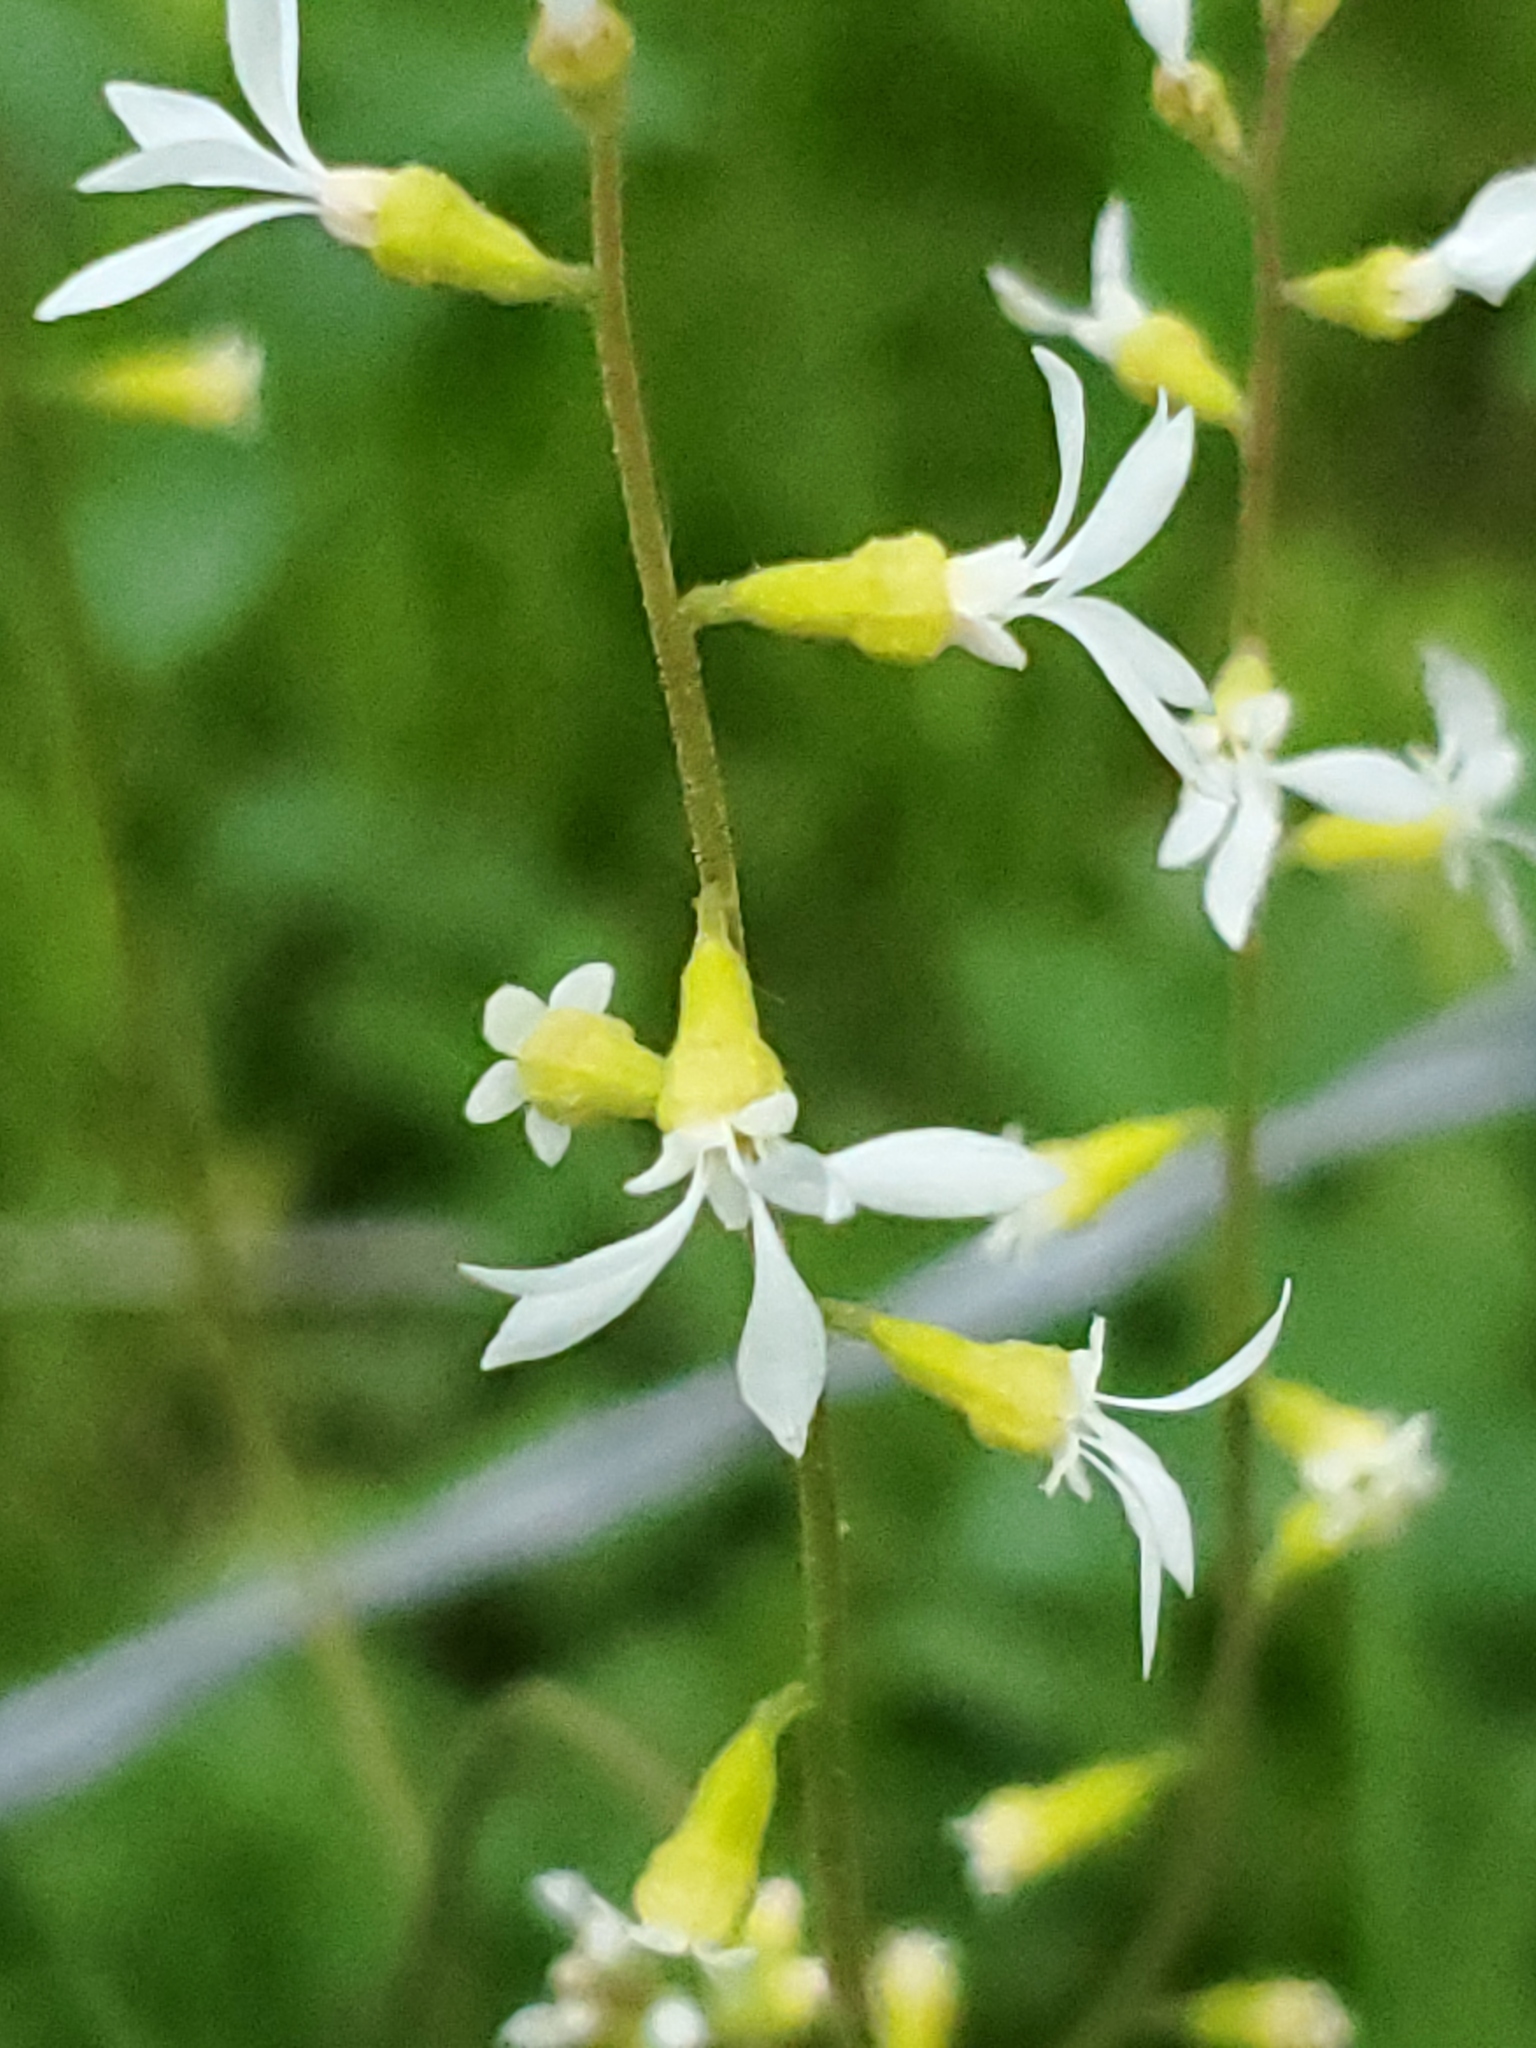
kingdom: Plantae
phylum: Tracheophyta
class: Magnoliopsida
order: Saxifragales
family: Saxifragaceae
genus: Conimitella
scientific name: Conimitella williamsii
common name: William's conimitella
